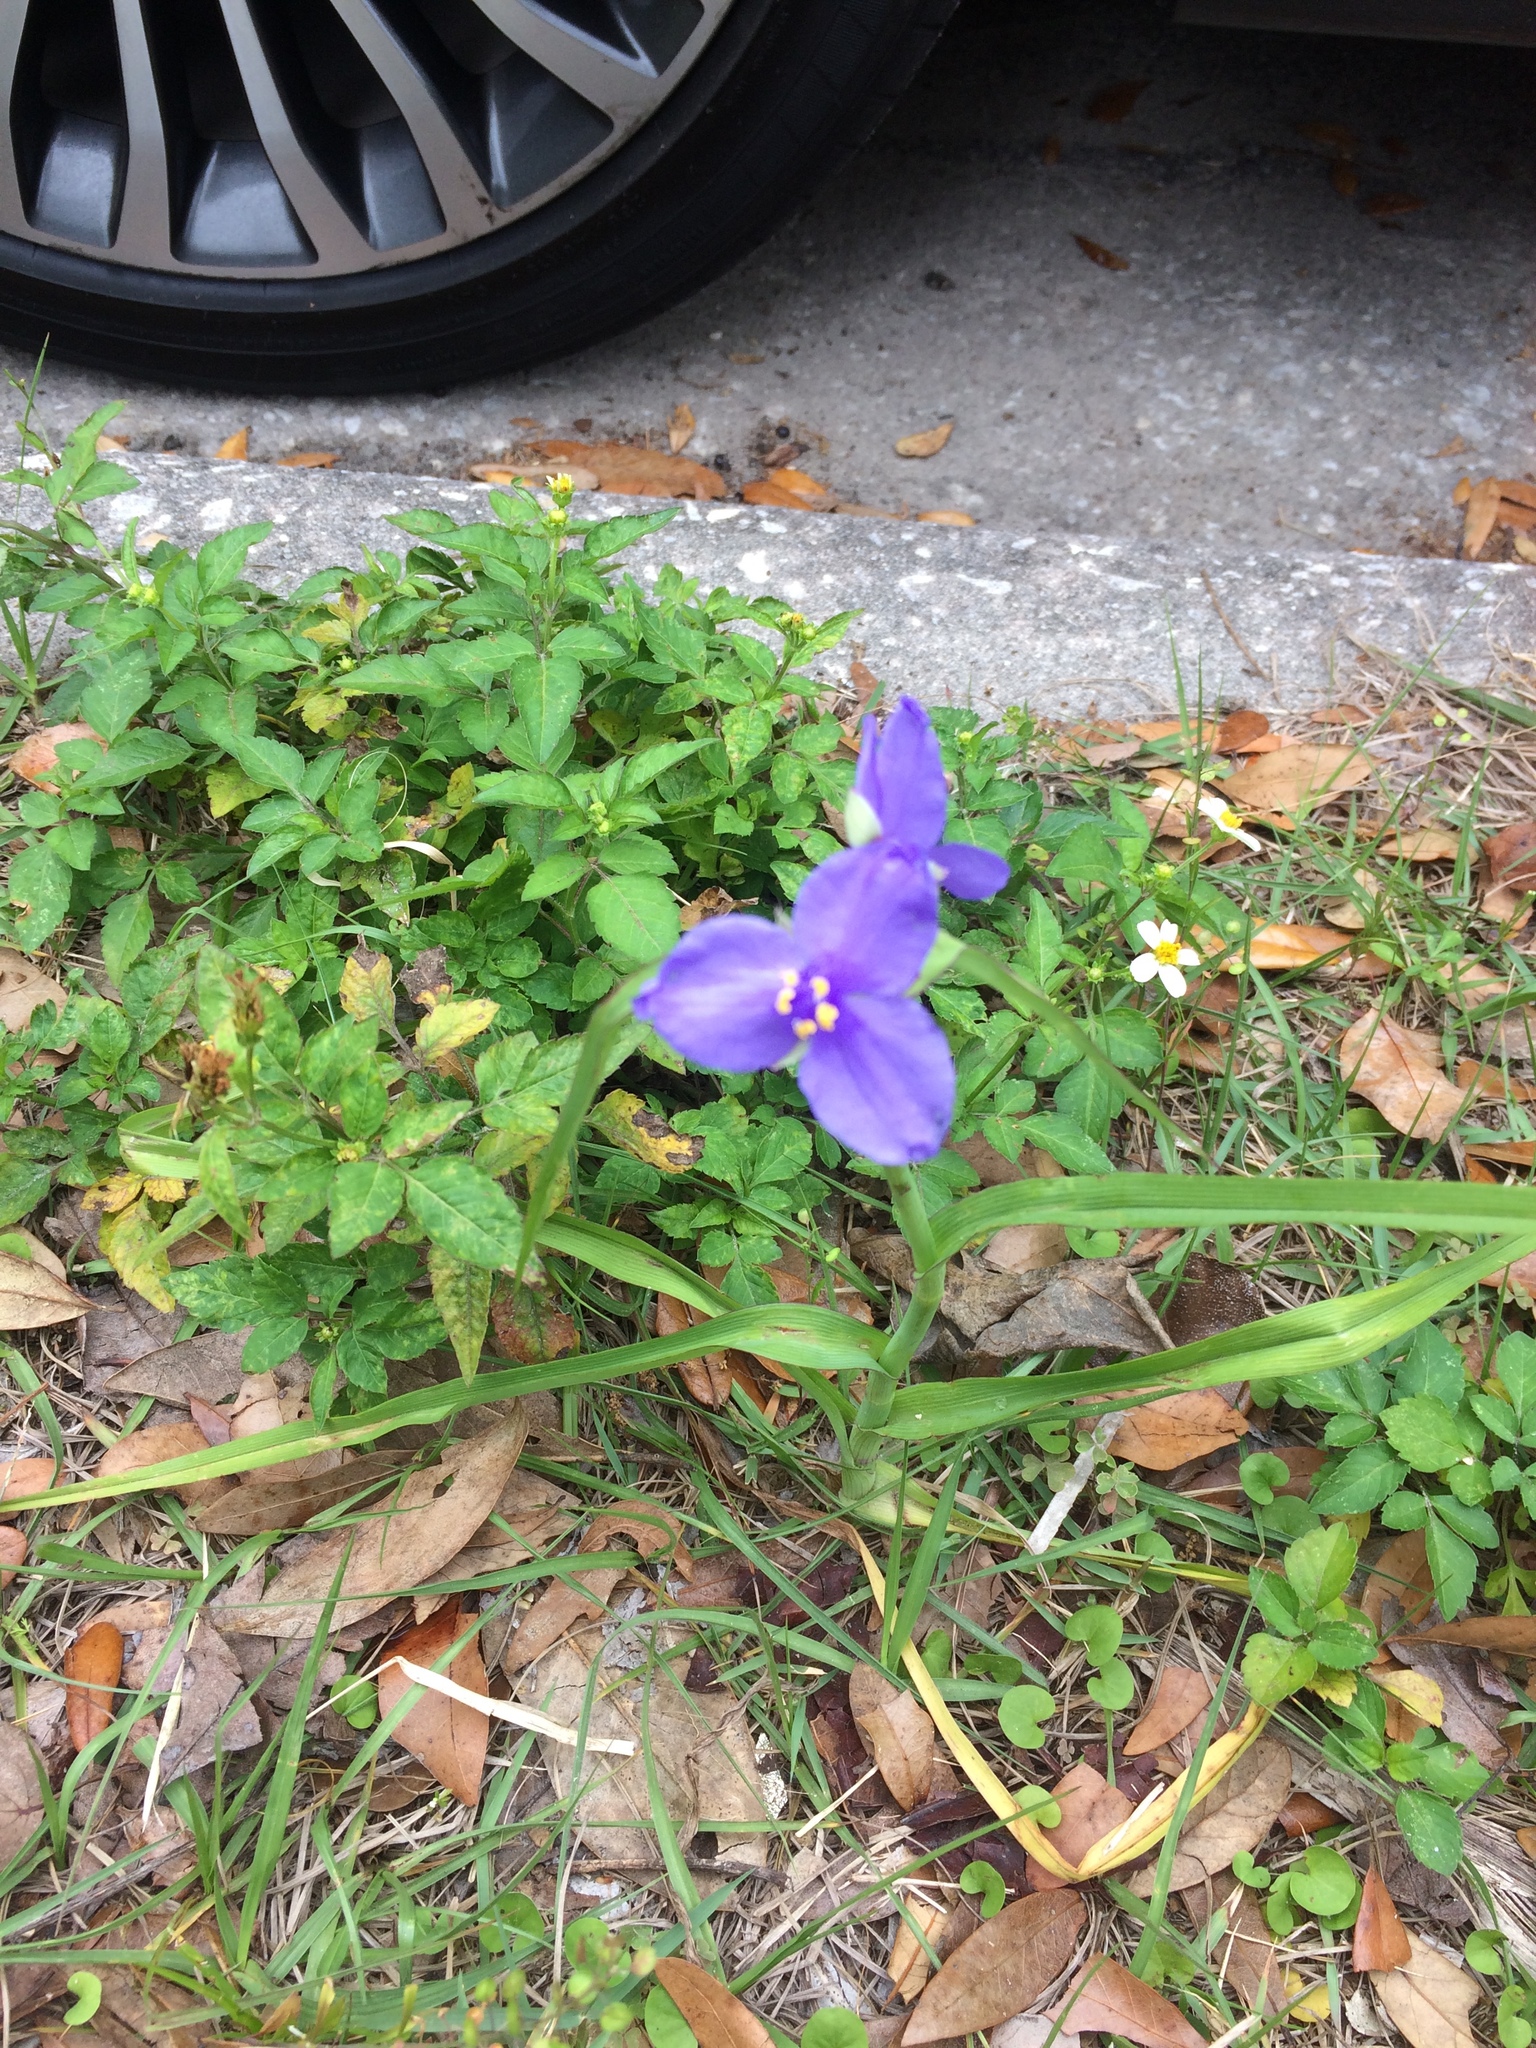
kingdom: Plantae
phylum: Tracheophyta
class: Liliopsida
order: Commelinales
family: Commelinaceae
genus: Tradescantia
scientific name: Tradescantia ohiensis
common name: Ohio spiderwort
